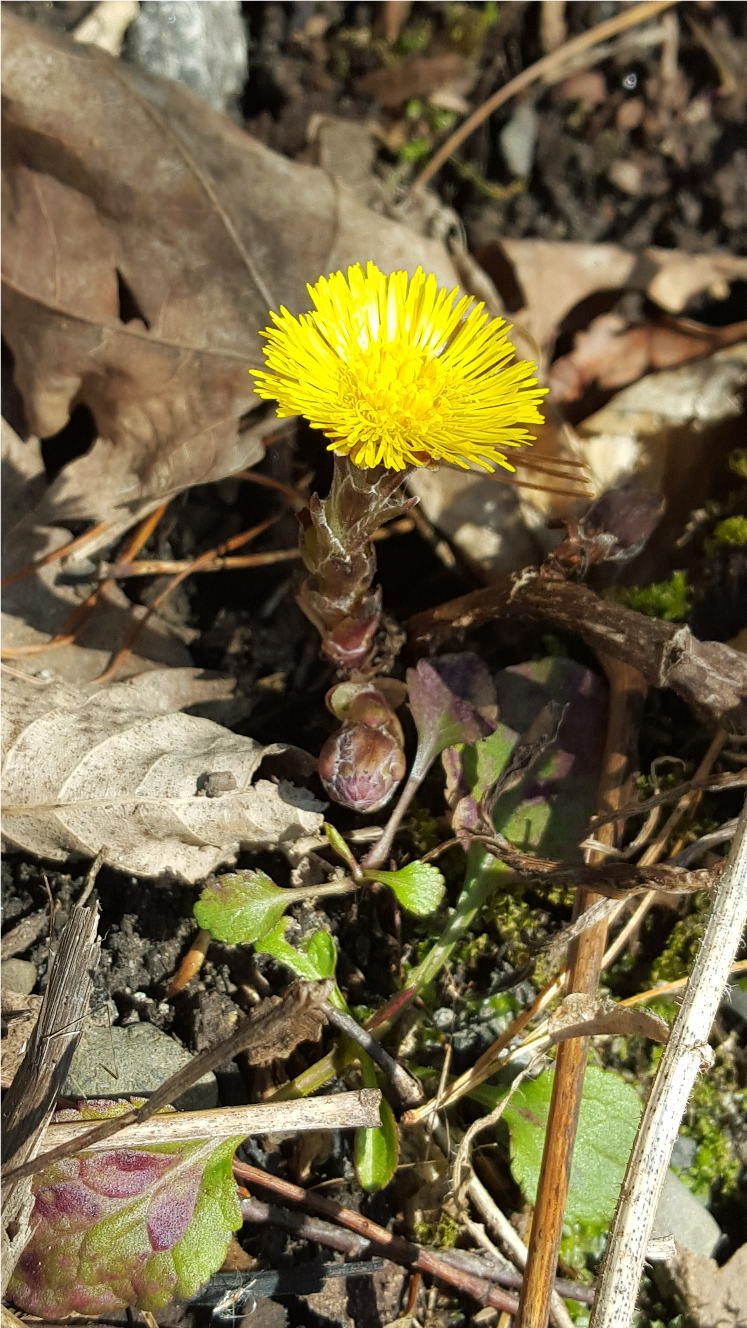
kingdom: Plantae
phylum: Tracheophyta
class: Magnoliopsida
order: Asterales
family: Asteraceae
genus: Tussilago
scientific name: Tussilago farfara
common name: Coltsfoot
